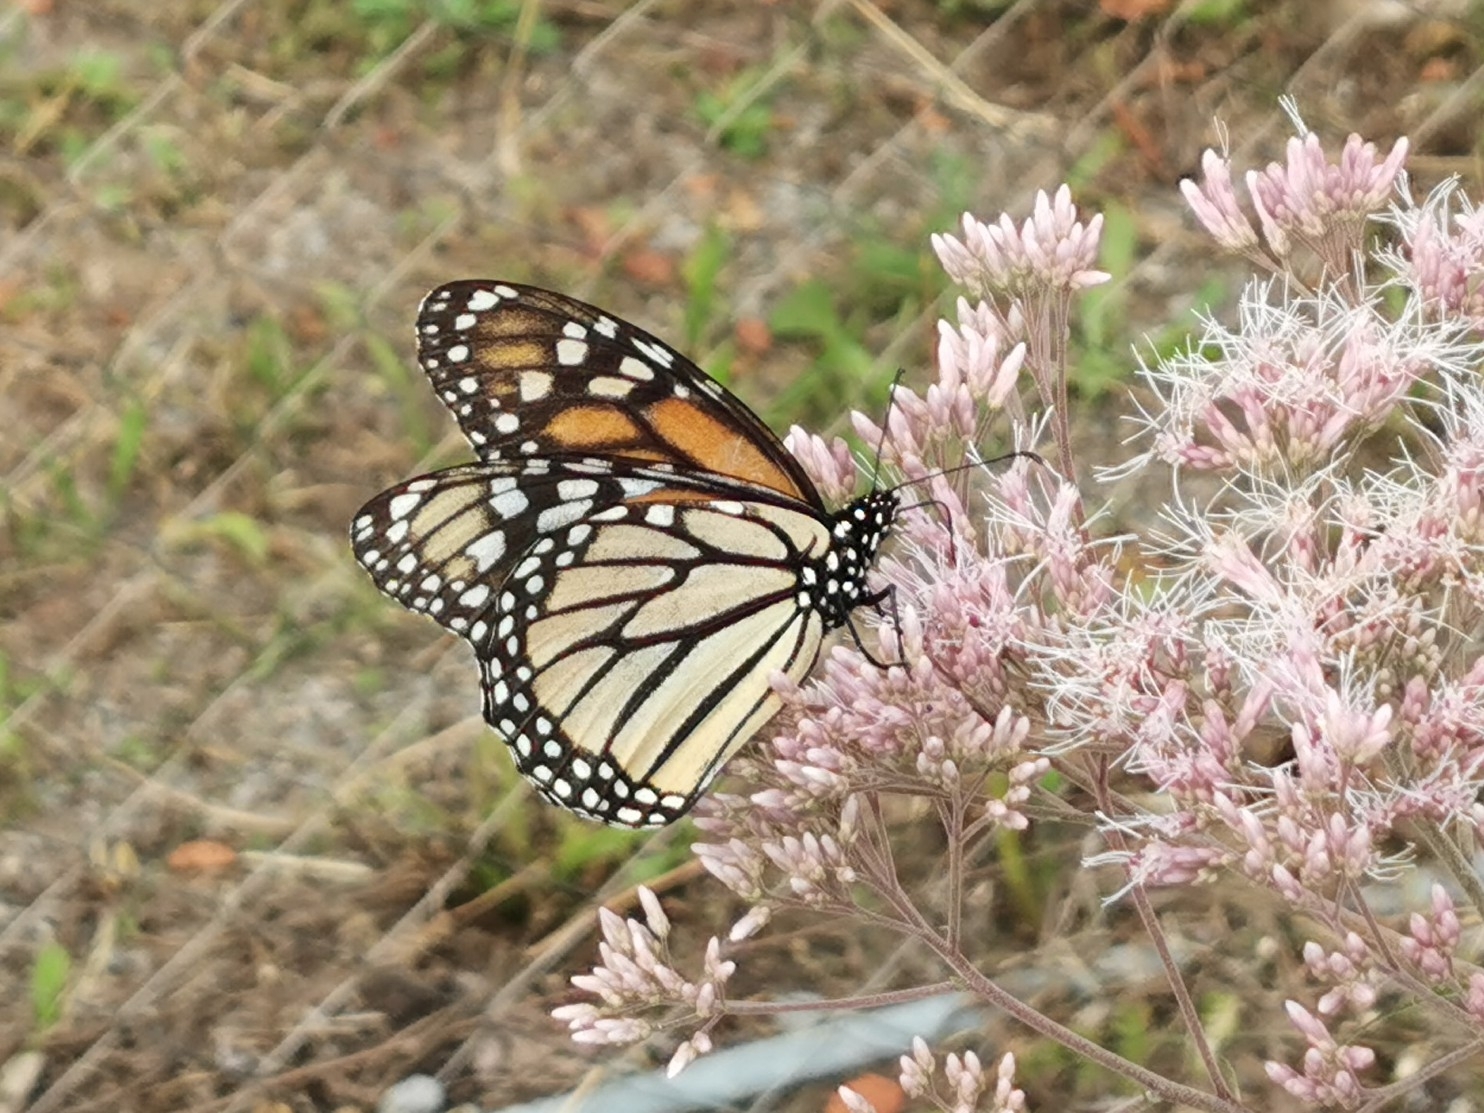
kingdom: Animalia
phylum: Arthropoda
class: Insecta
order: Lepidoptera
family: Nymphalidae
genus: Danaus
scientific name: Danaus plexippus
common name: Monarch
